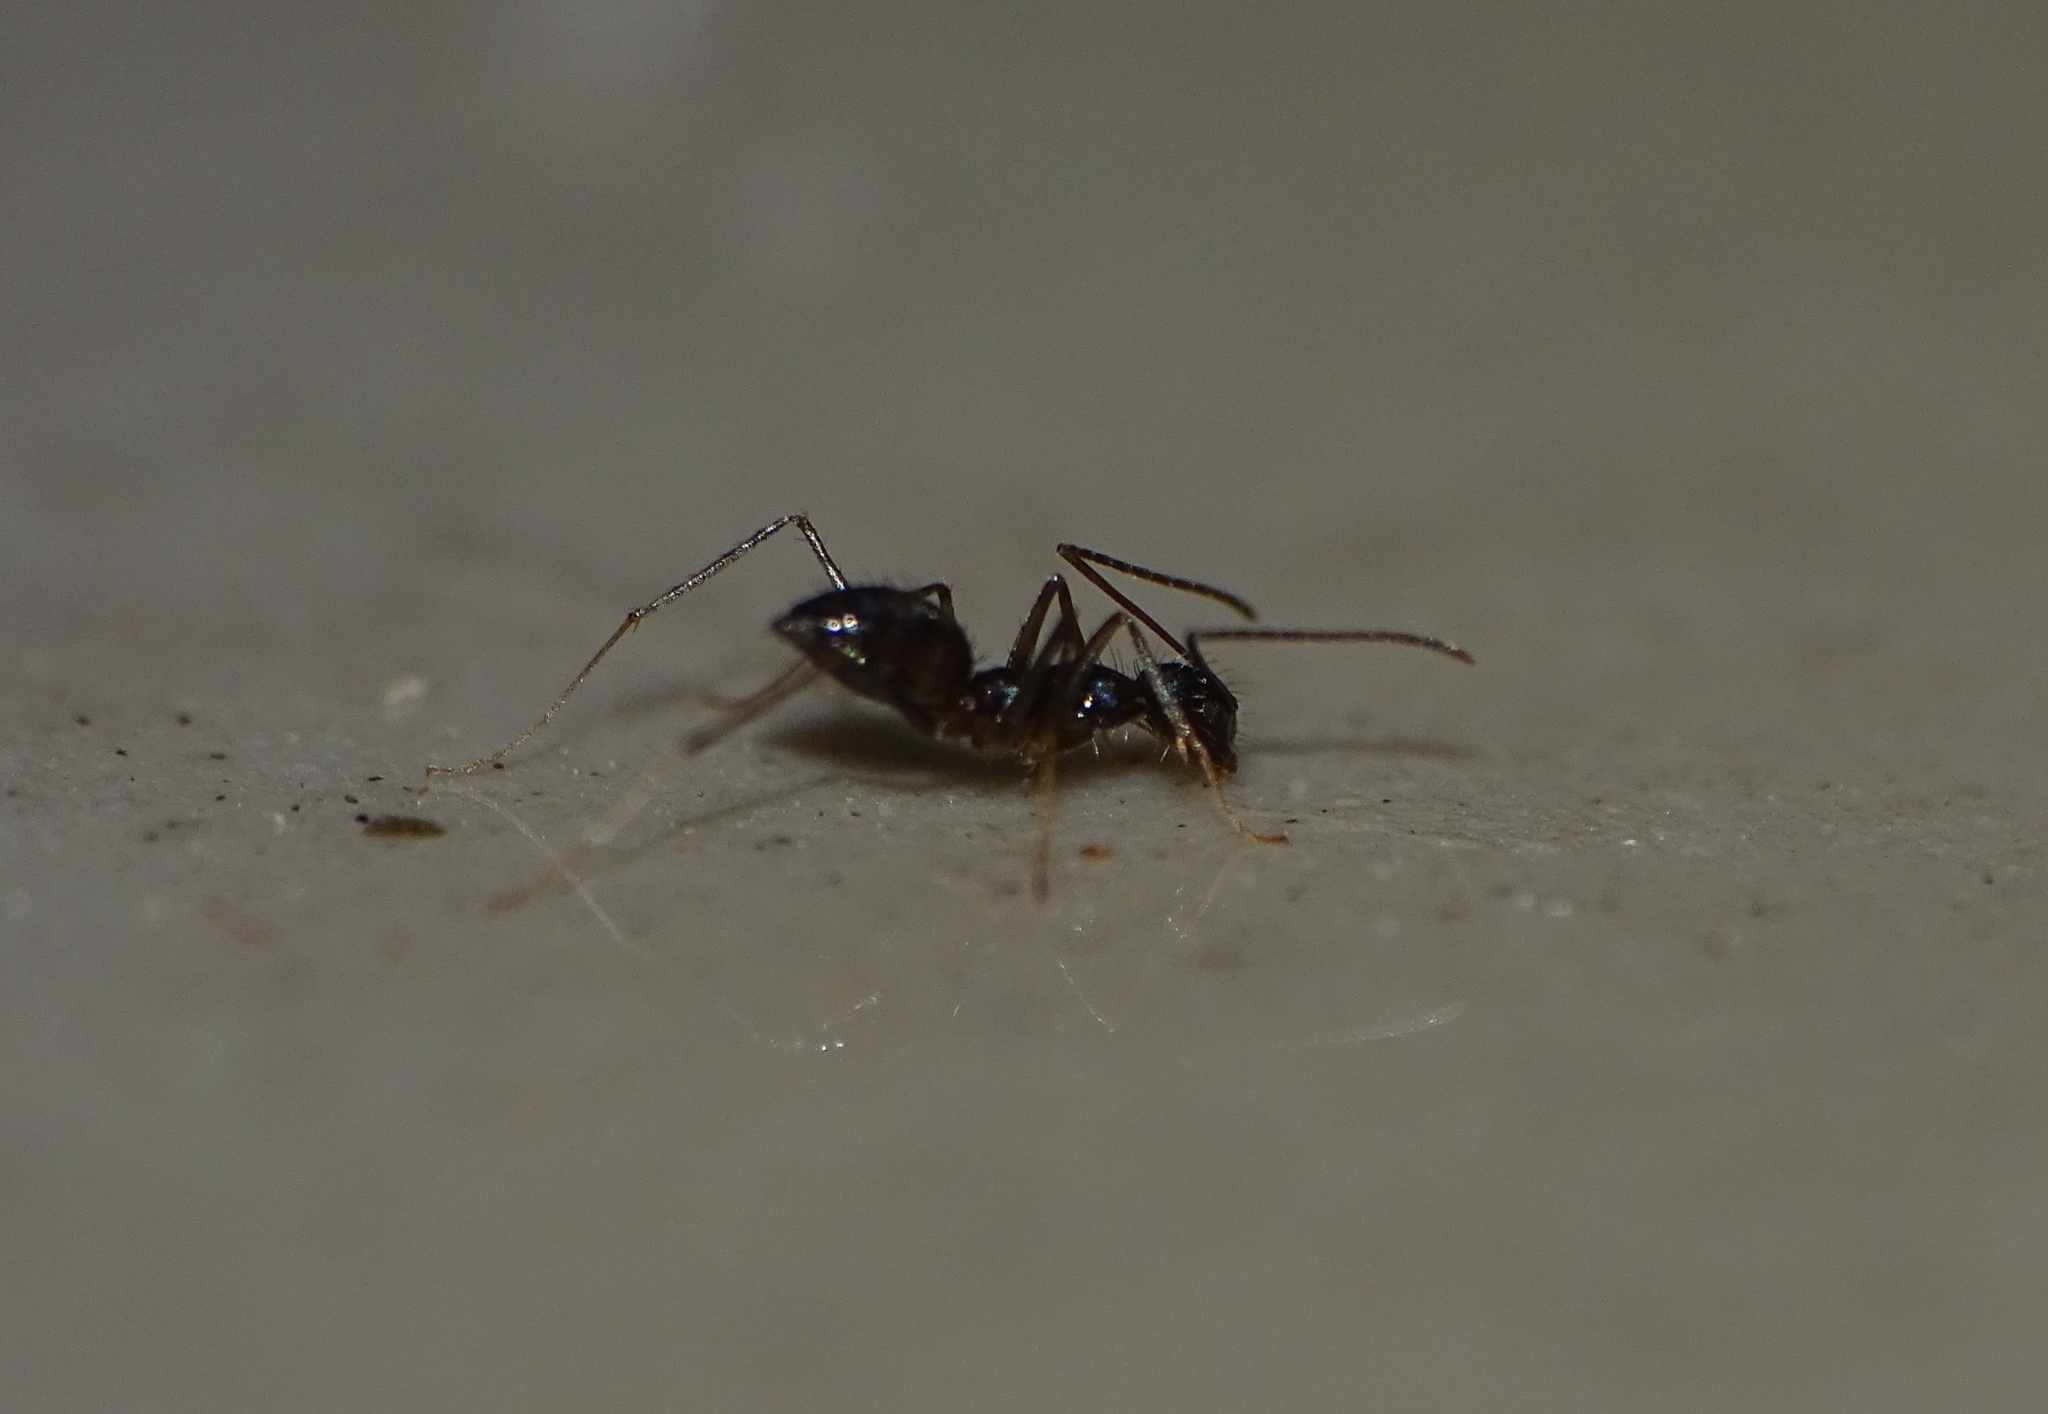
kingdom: Animalia
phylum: Arthropoda
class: Insecta
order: Hymenoptera
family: Formicidae
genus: Paratrechina
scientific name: Paratrechina longicornis
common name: Longhorned crazy ant
